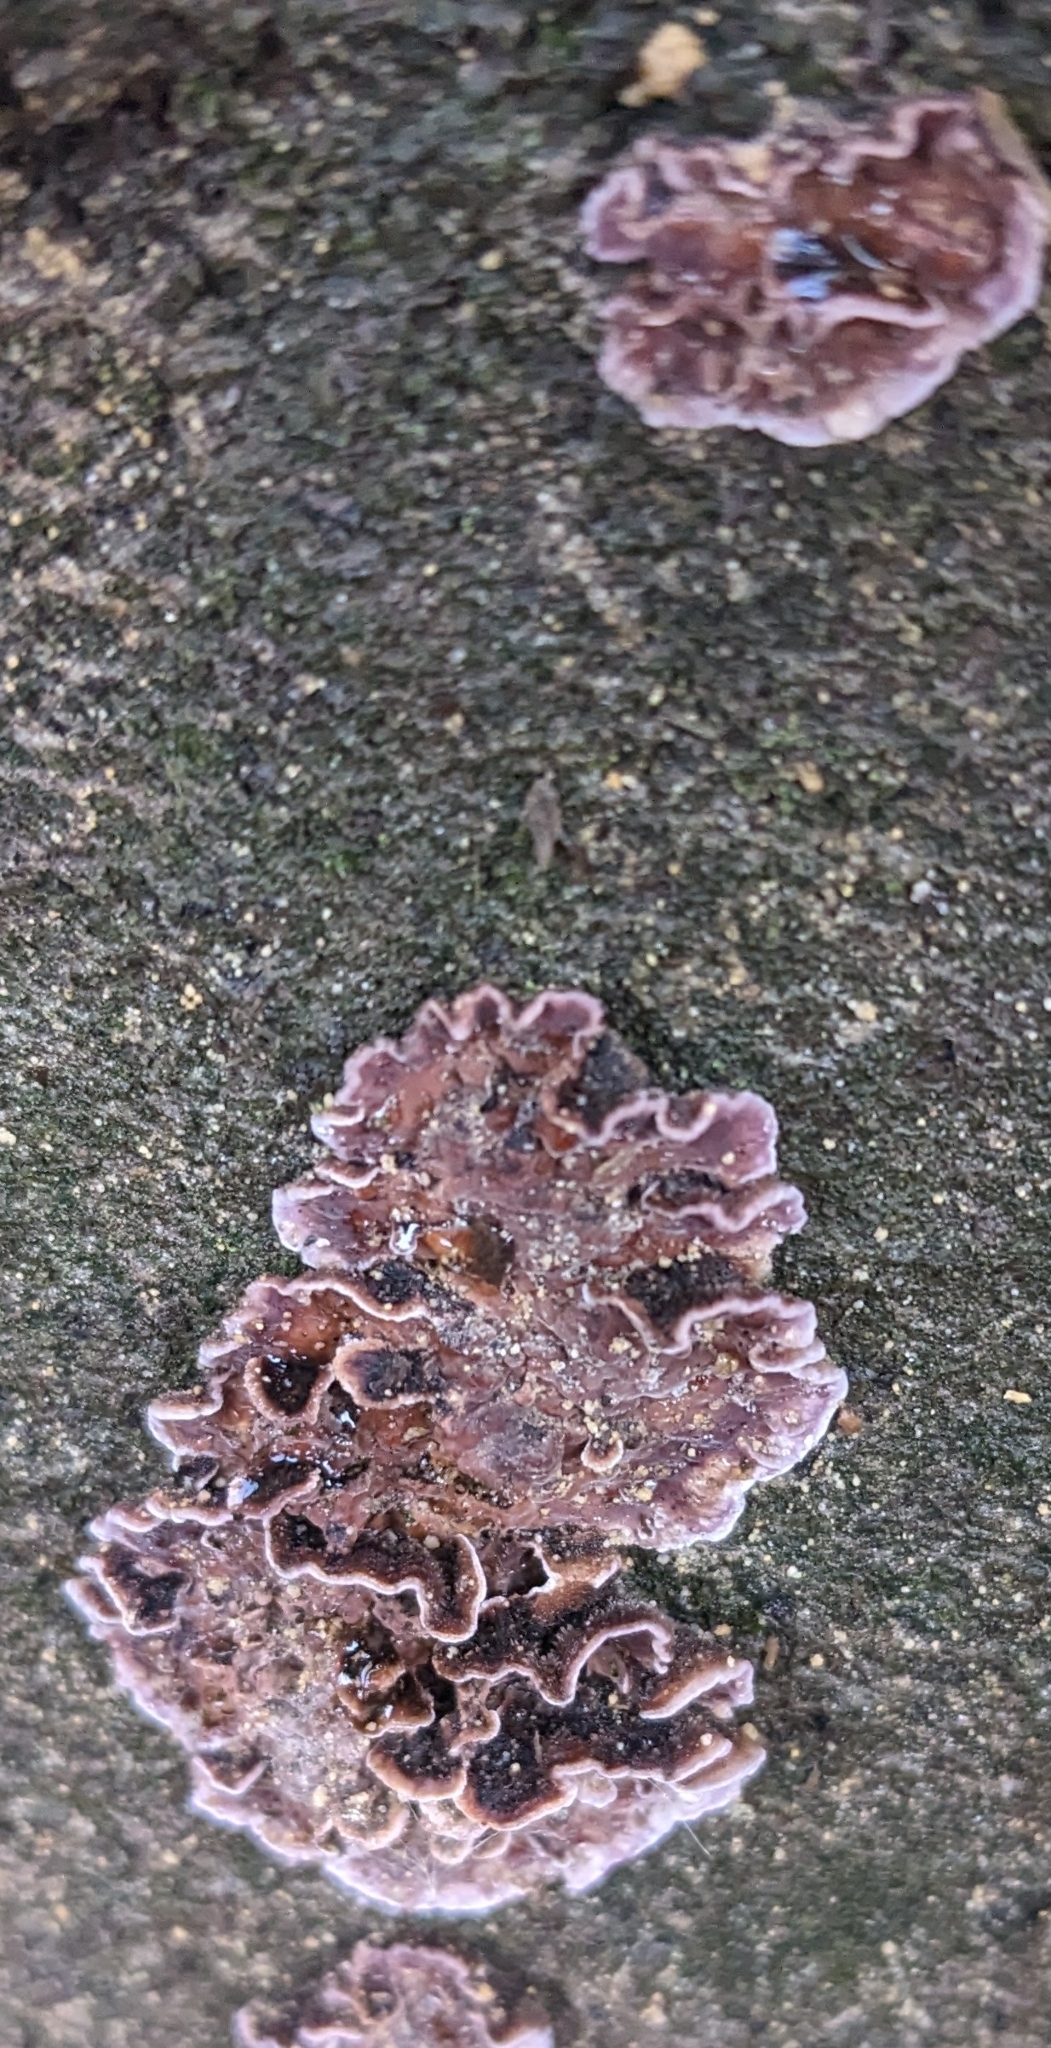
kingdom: Fungi
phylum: Basidiomycota
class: Agaricomycetes
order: Agaricales
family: Cyphellaceae
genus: Chondrostereum
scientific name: Chondrostereum purpureum
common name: Silver leaf disease
